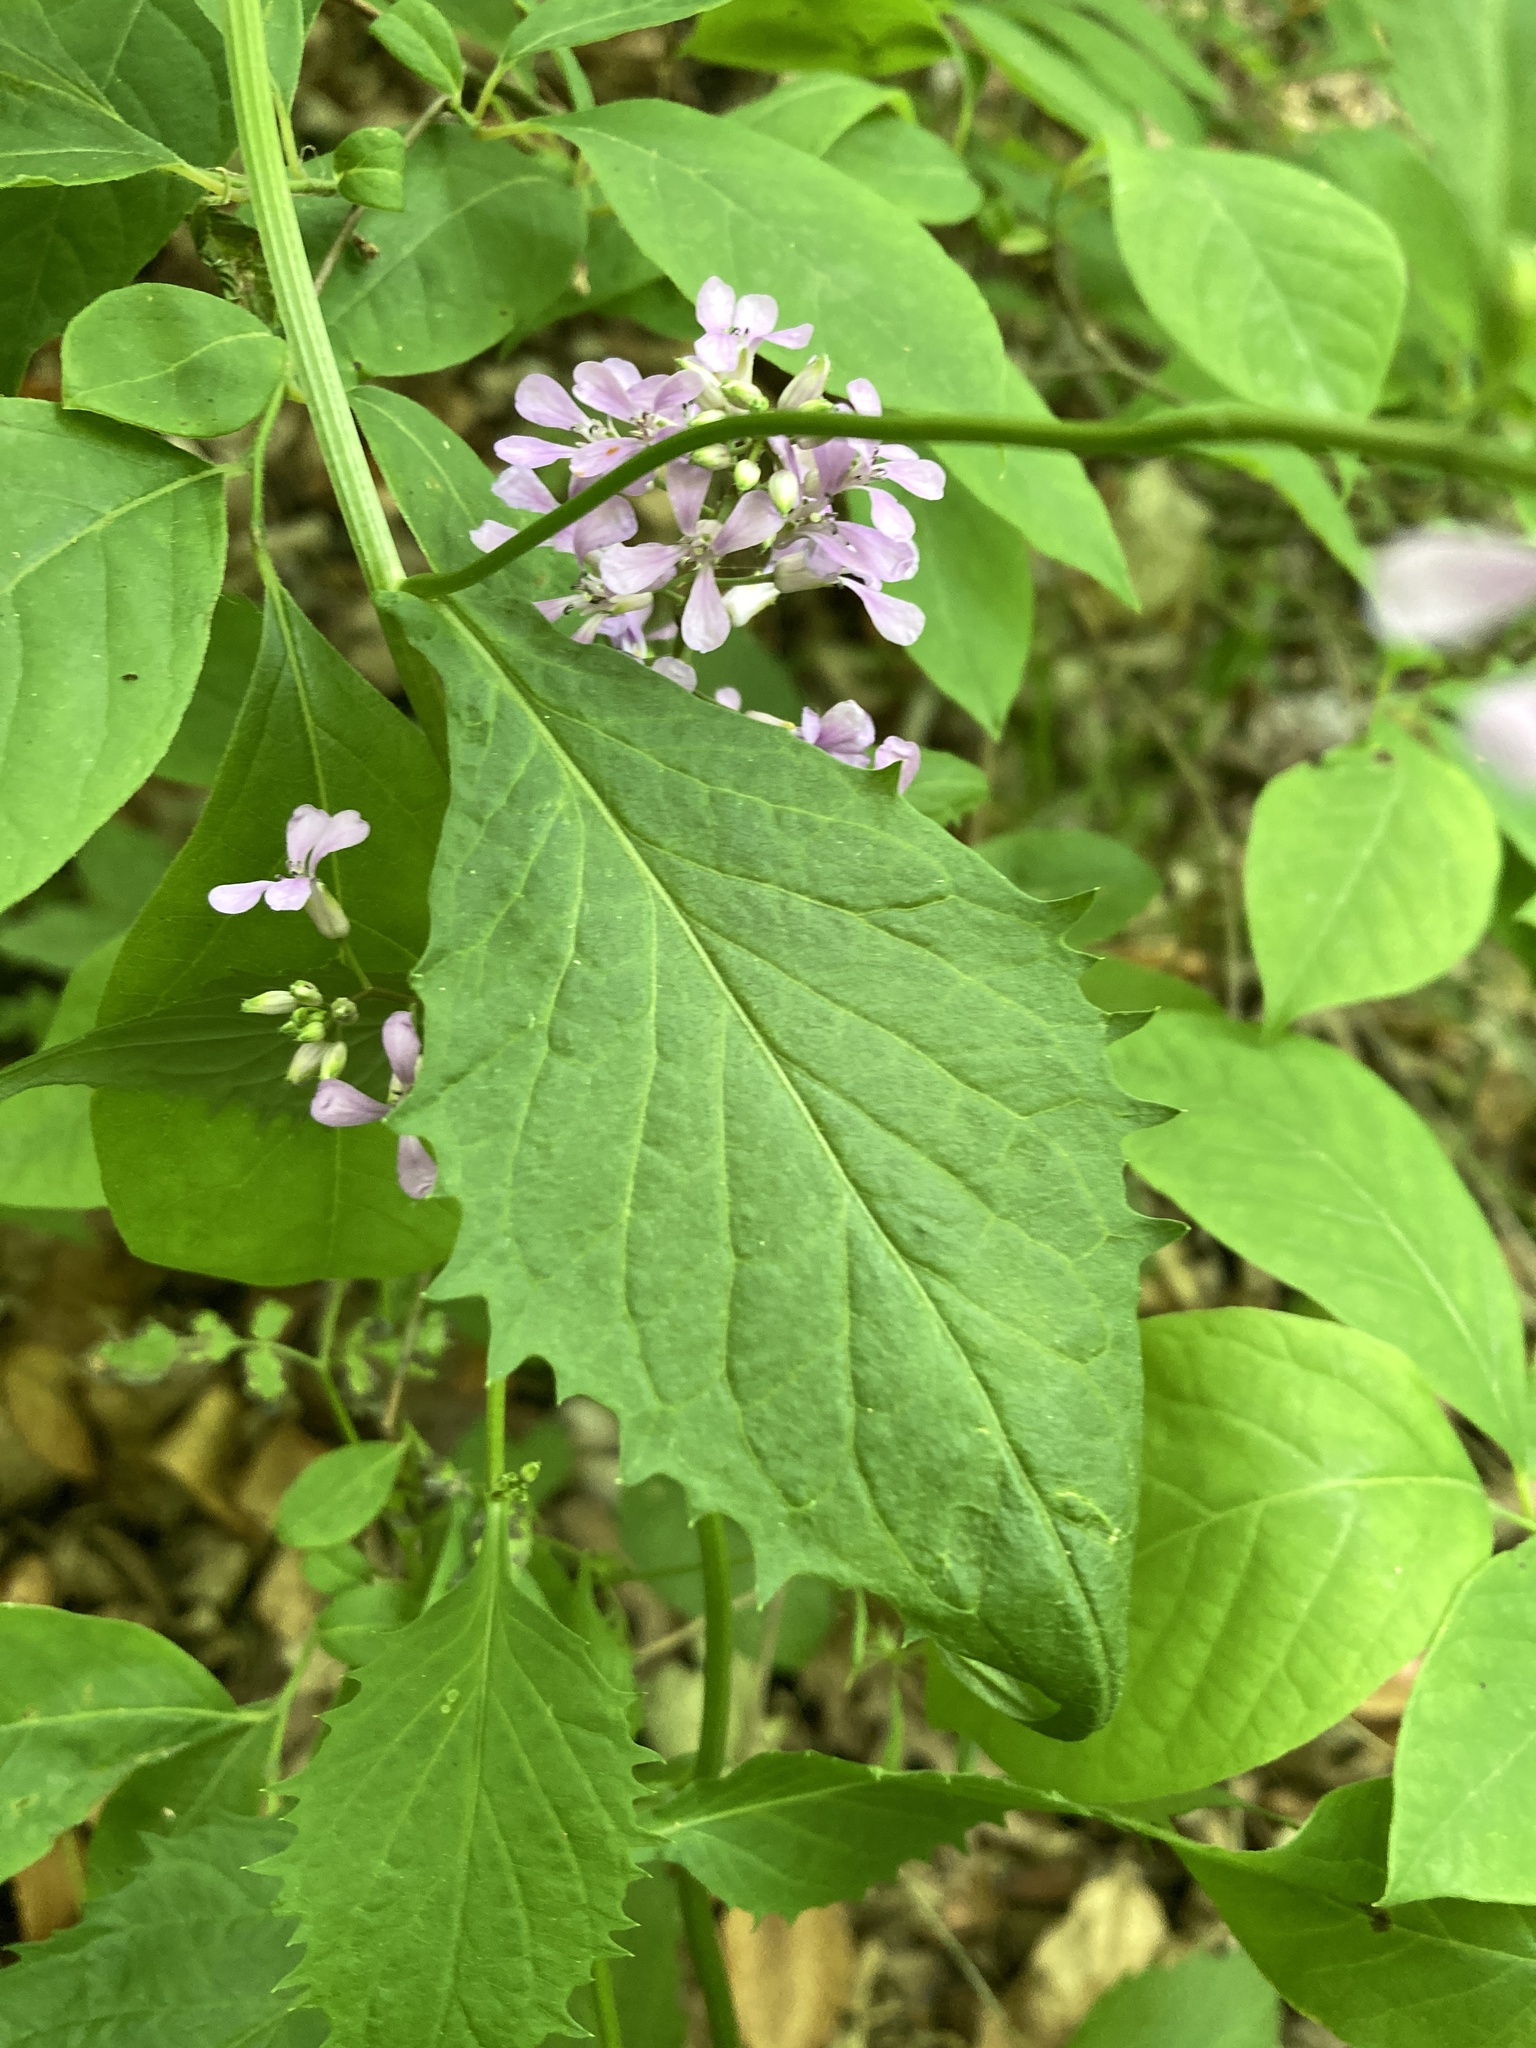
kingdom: Plantae
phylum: Tracheophyta
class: Magnoliopsida
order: Brassicales
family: Brassicaceae
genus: Iodanthus
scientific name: Iodanthus pinnatifidus
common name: Violet rocket
